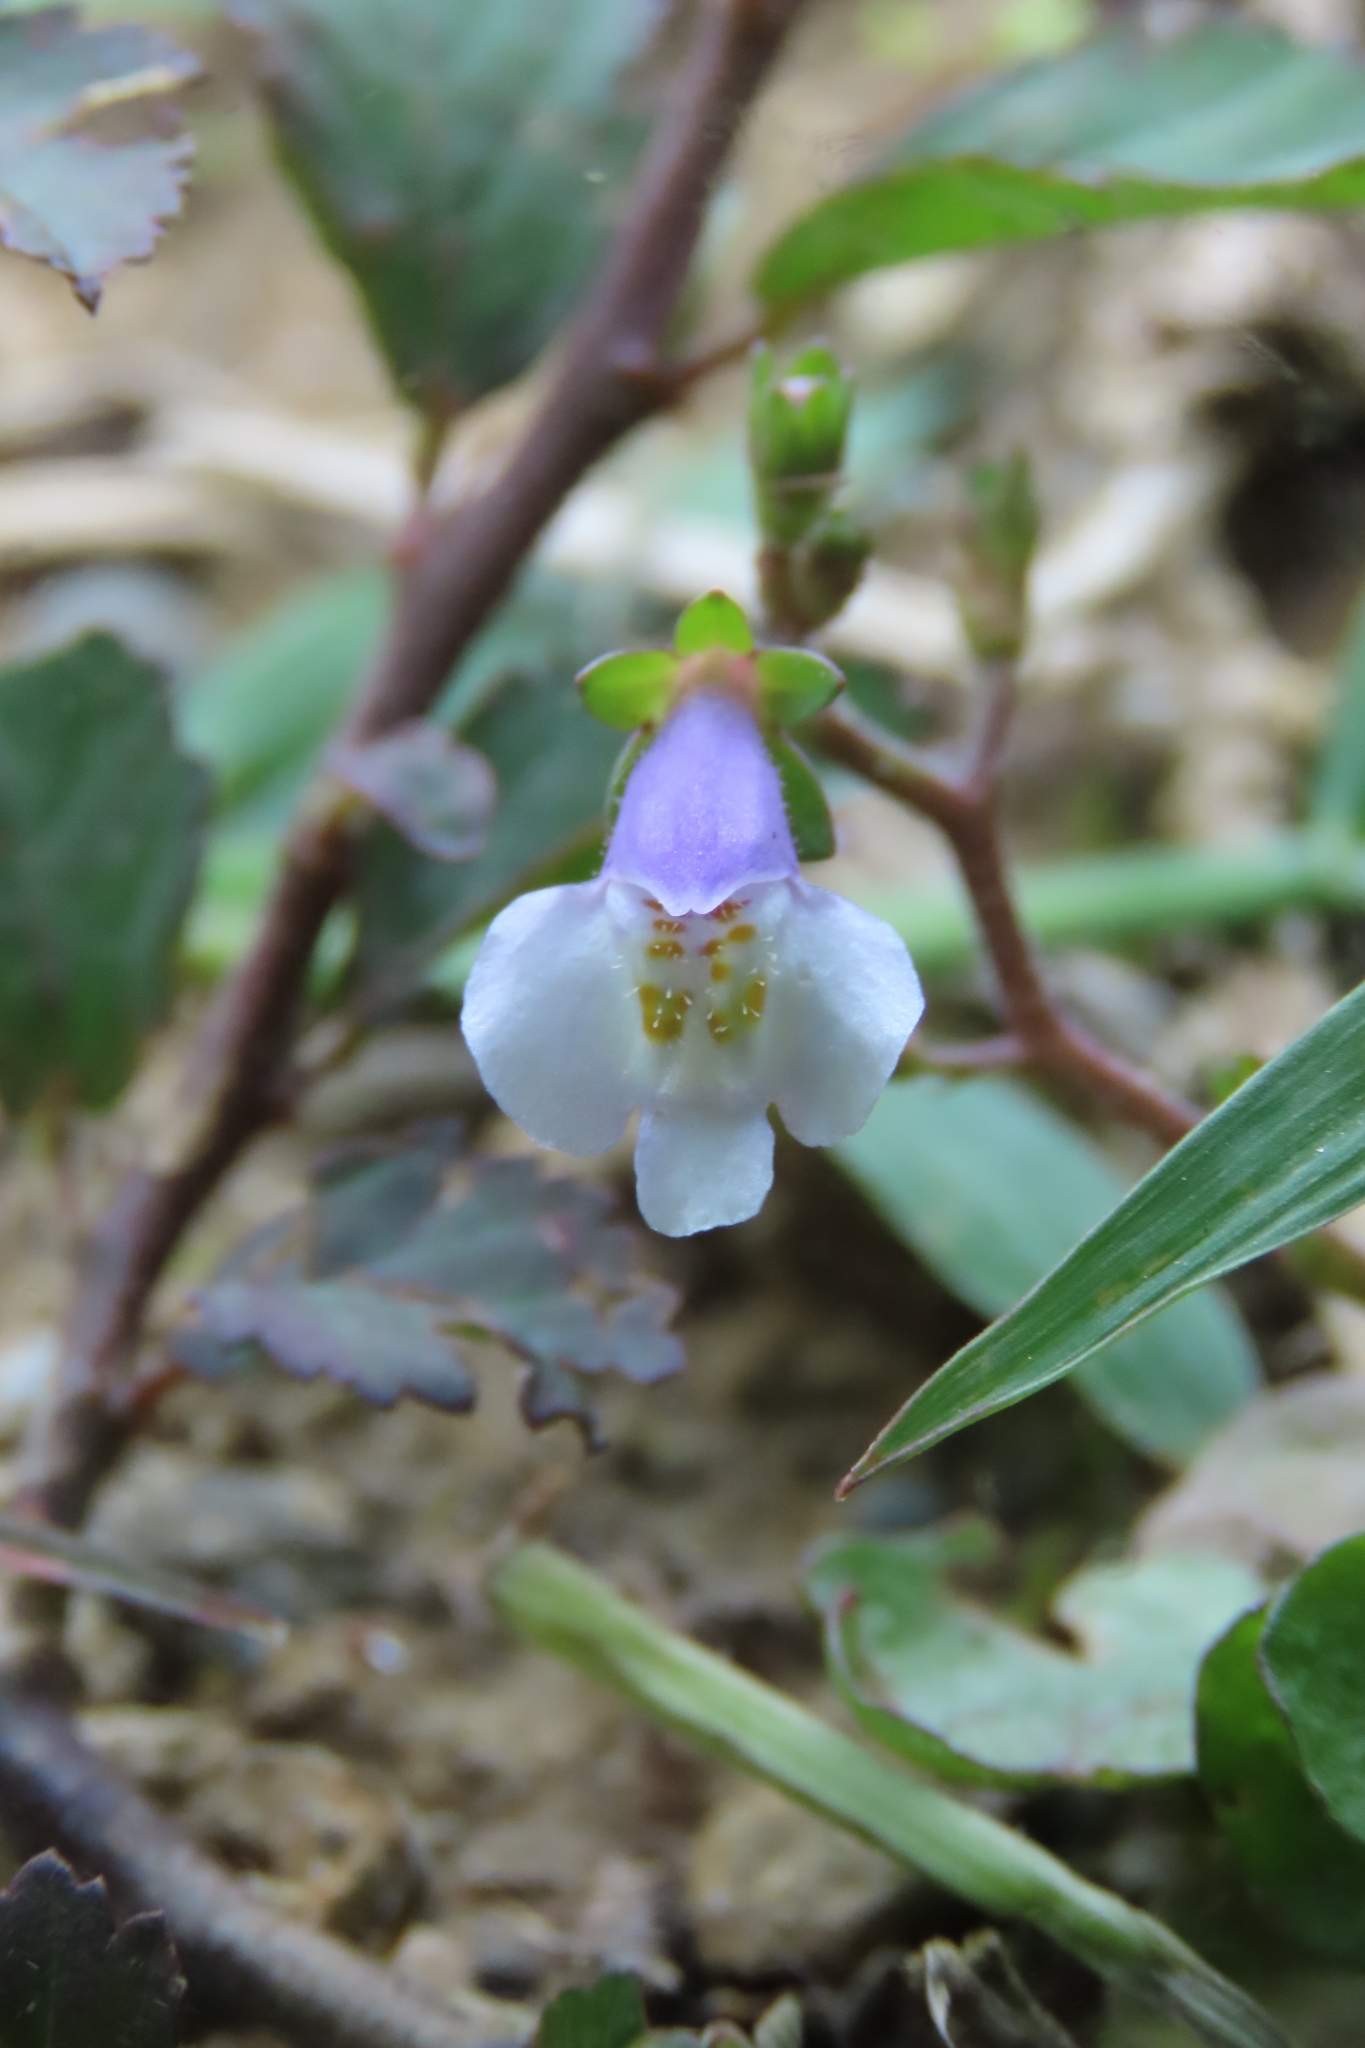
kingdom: Plantae
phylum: Tracheophyta
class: Magnoliopsida
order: Lamiales
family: Mazaceae
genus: Mazus
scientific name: Mazus pumilus
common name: Japanese mazus
